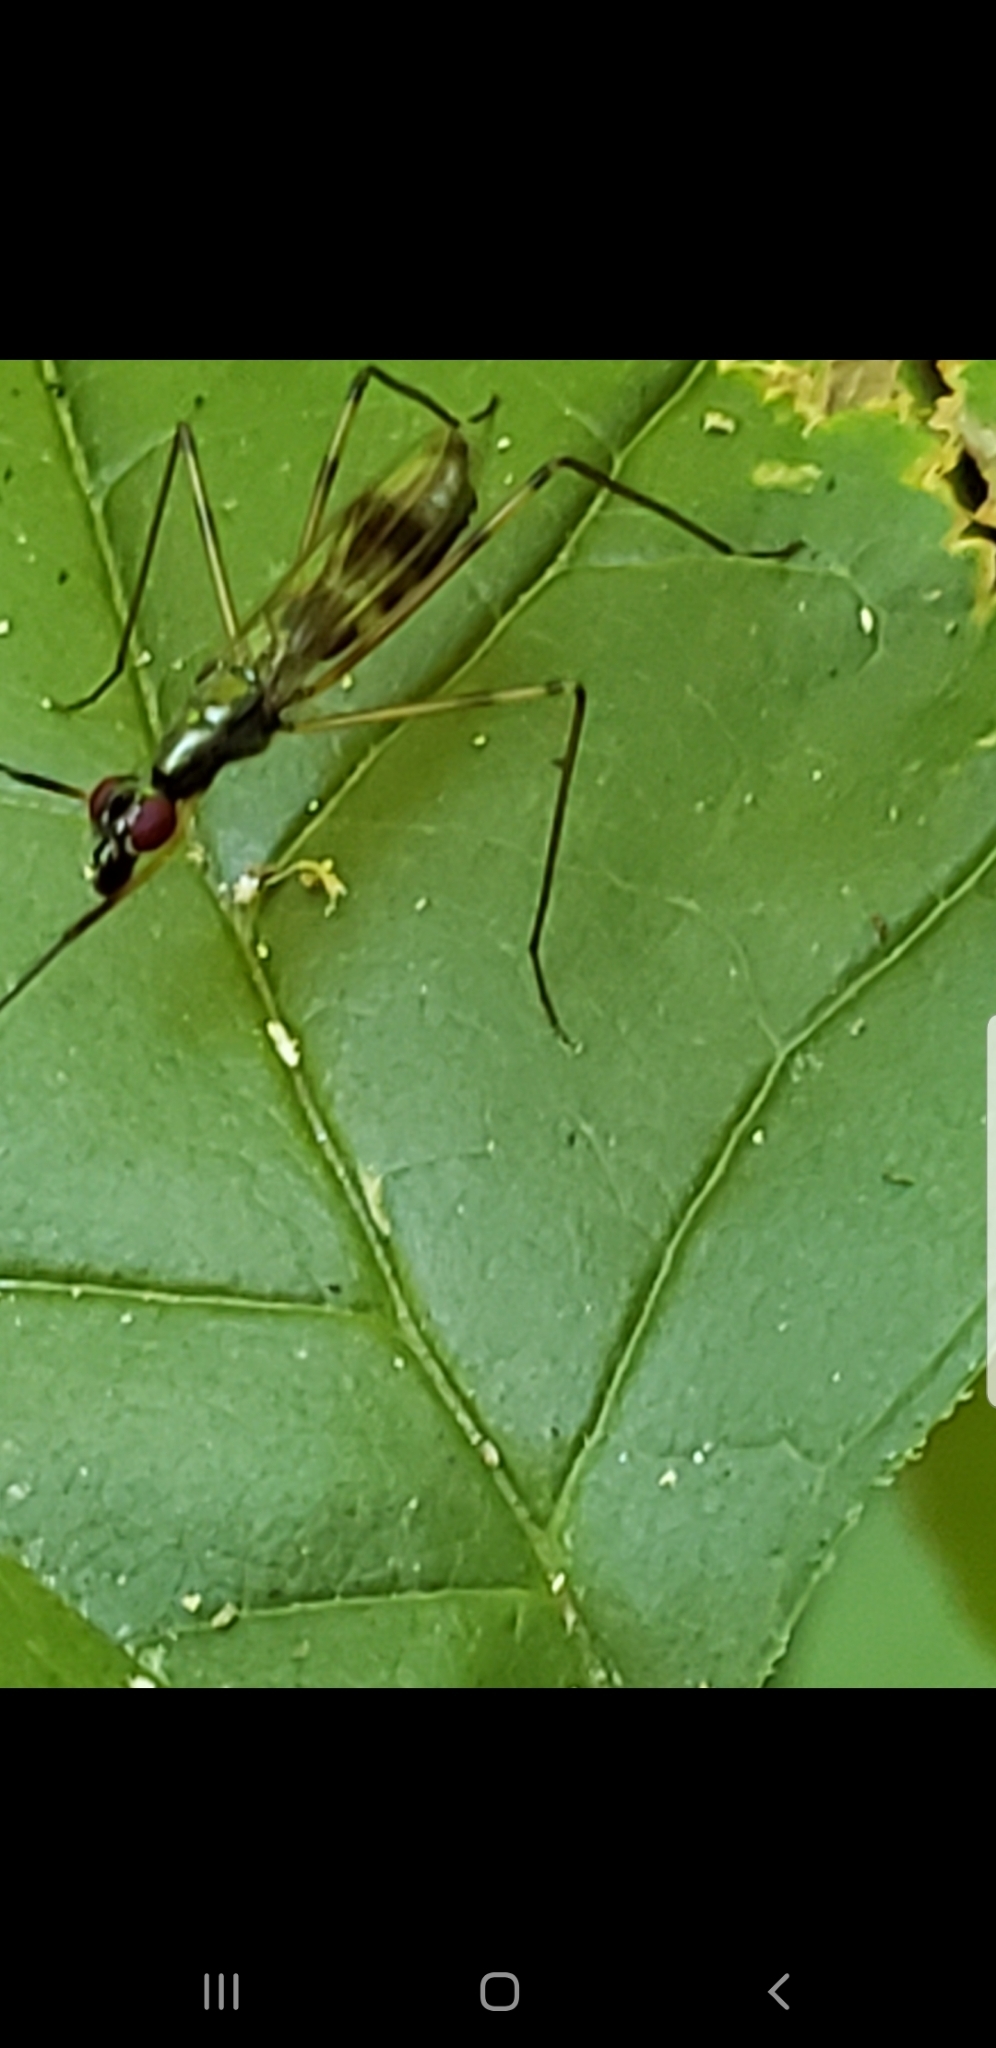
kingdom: Animalia
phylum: Arthropoda
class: Insecta
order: Diptera
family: Micropezidae
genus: Rainieria
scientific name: Rainieria antennaepes
